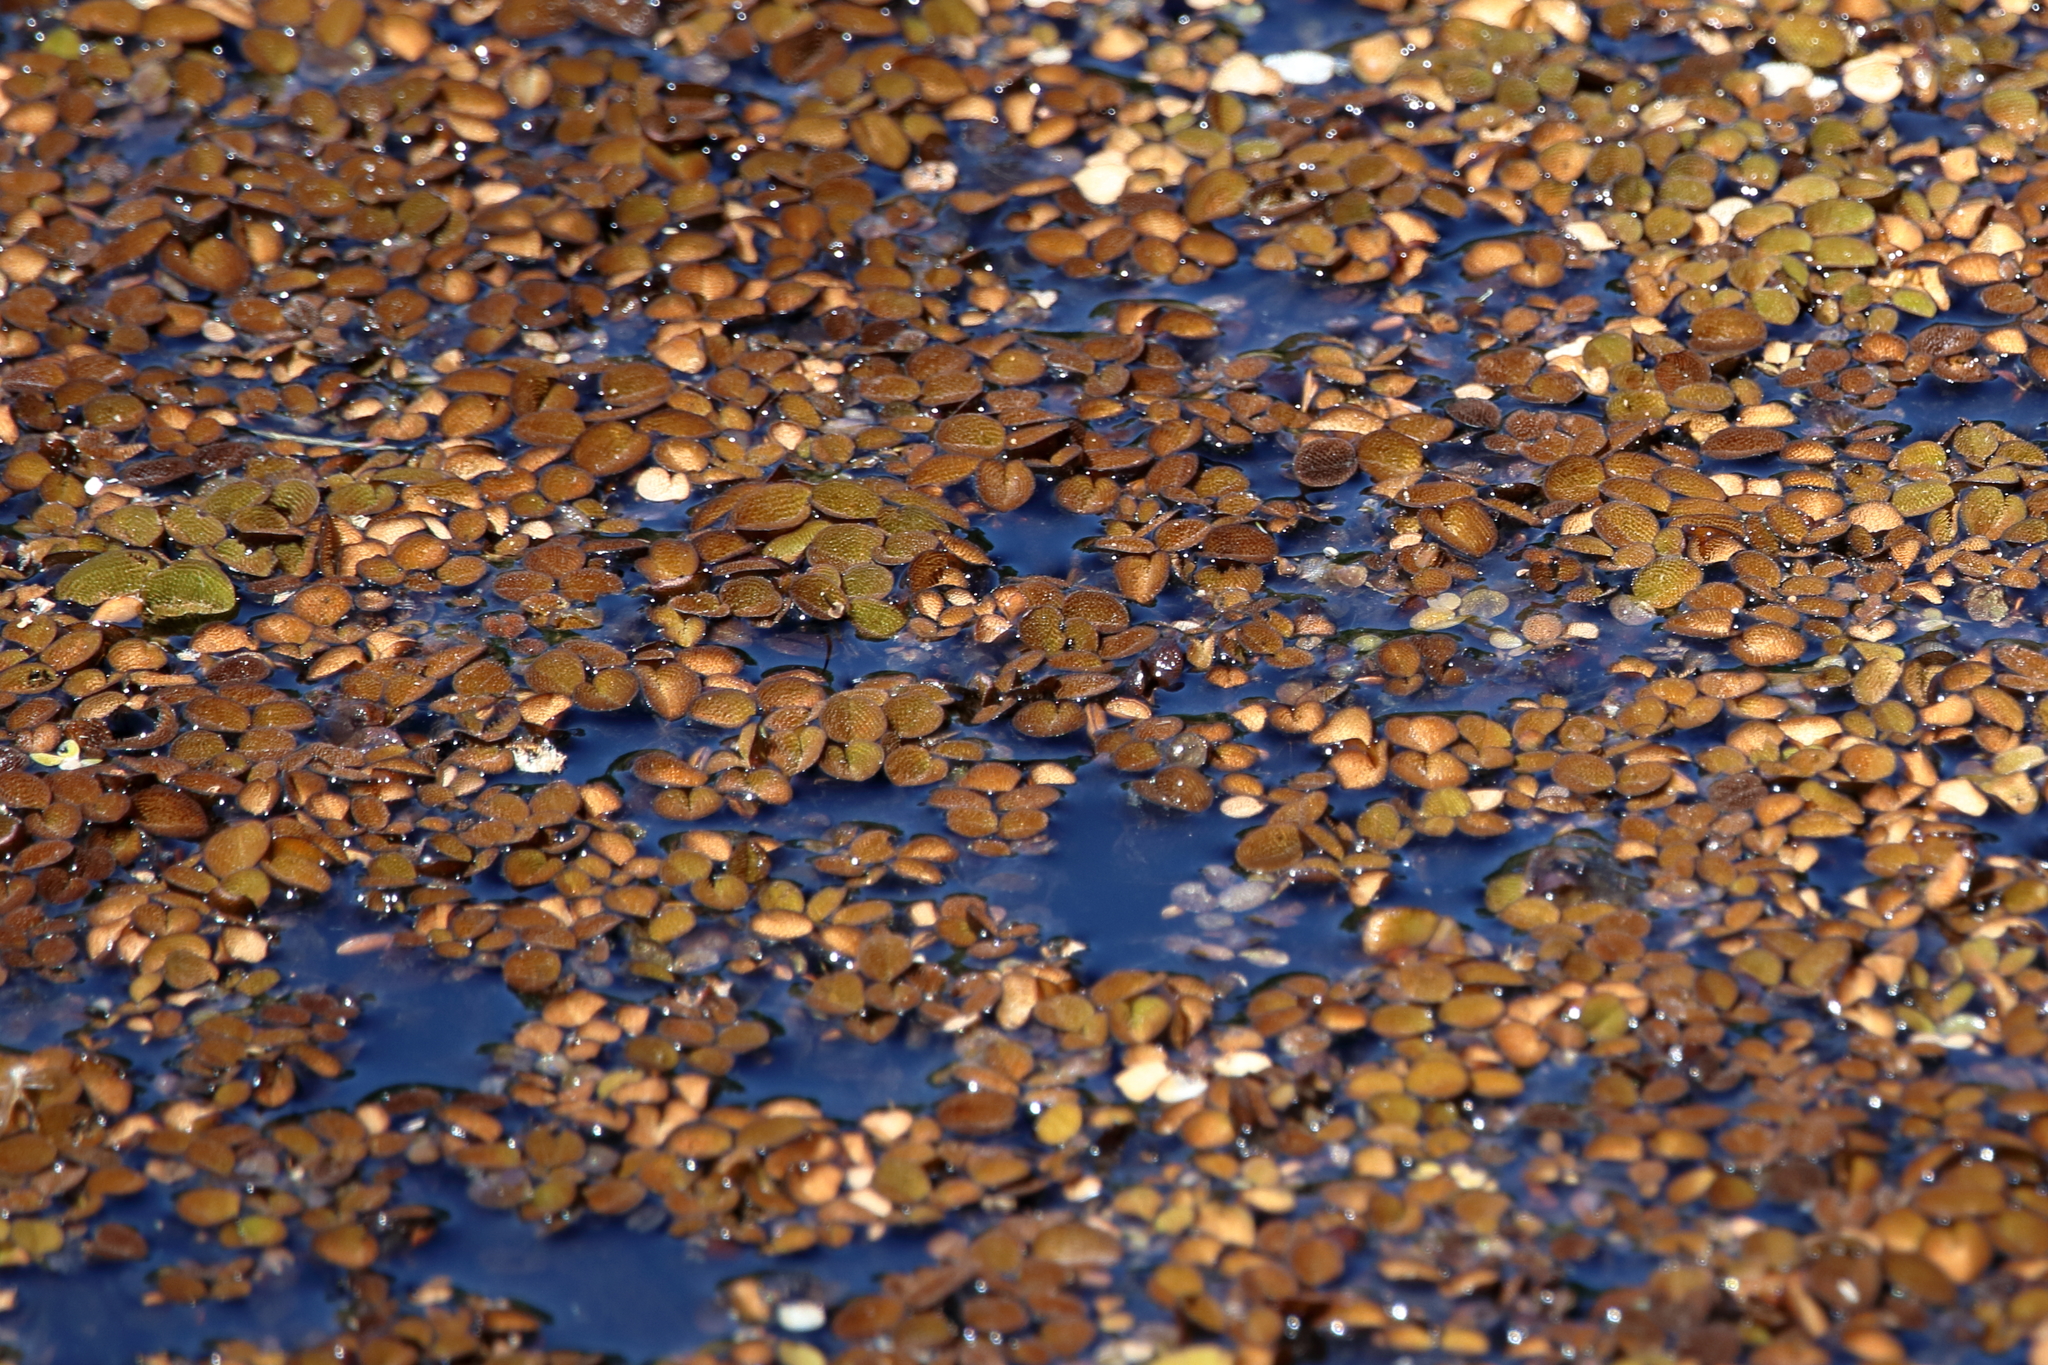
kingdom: Plantae
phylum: Tracheophyta
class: Polypodiopsida
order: Salviniales
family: Salviniaceae
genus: Salvinia
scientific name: Salvinia minima
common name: Water spangles
